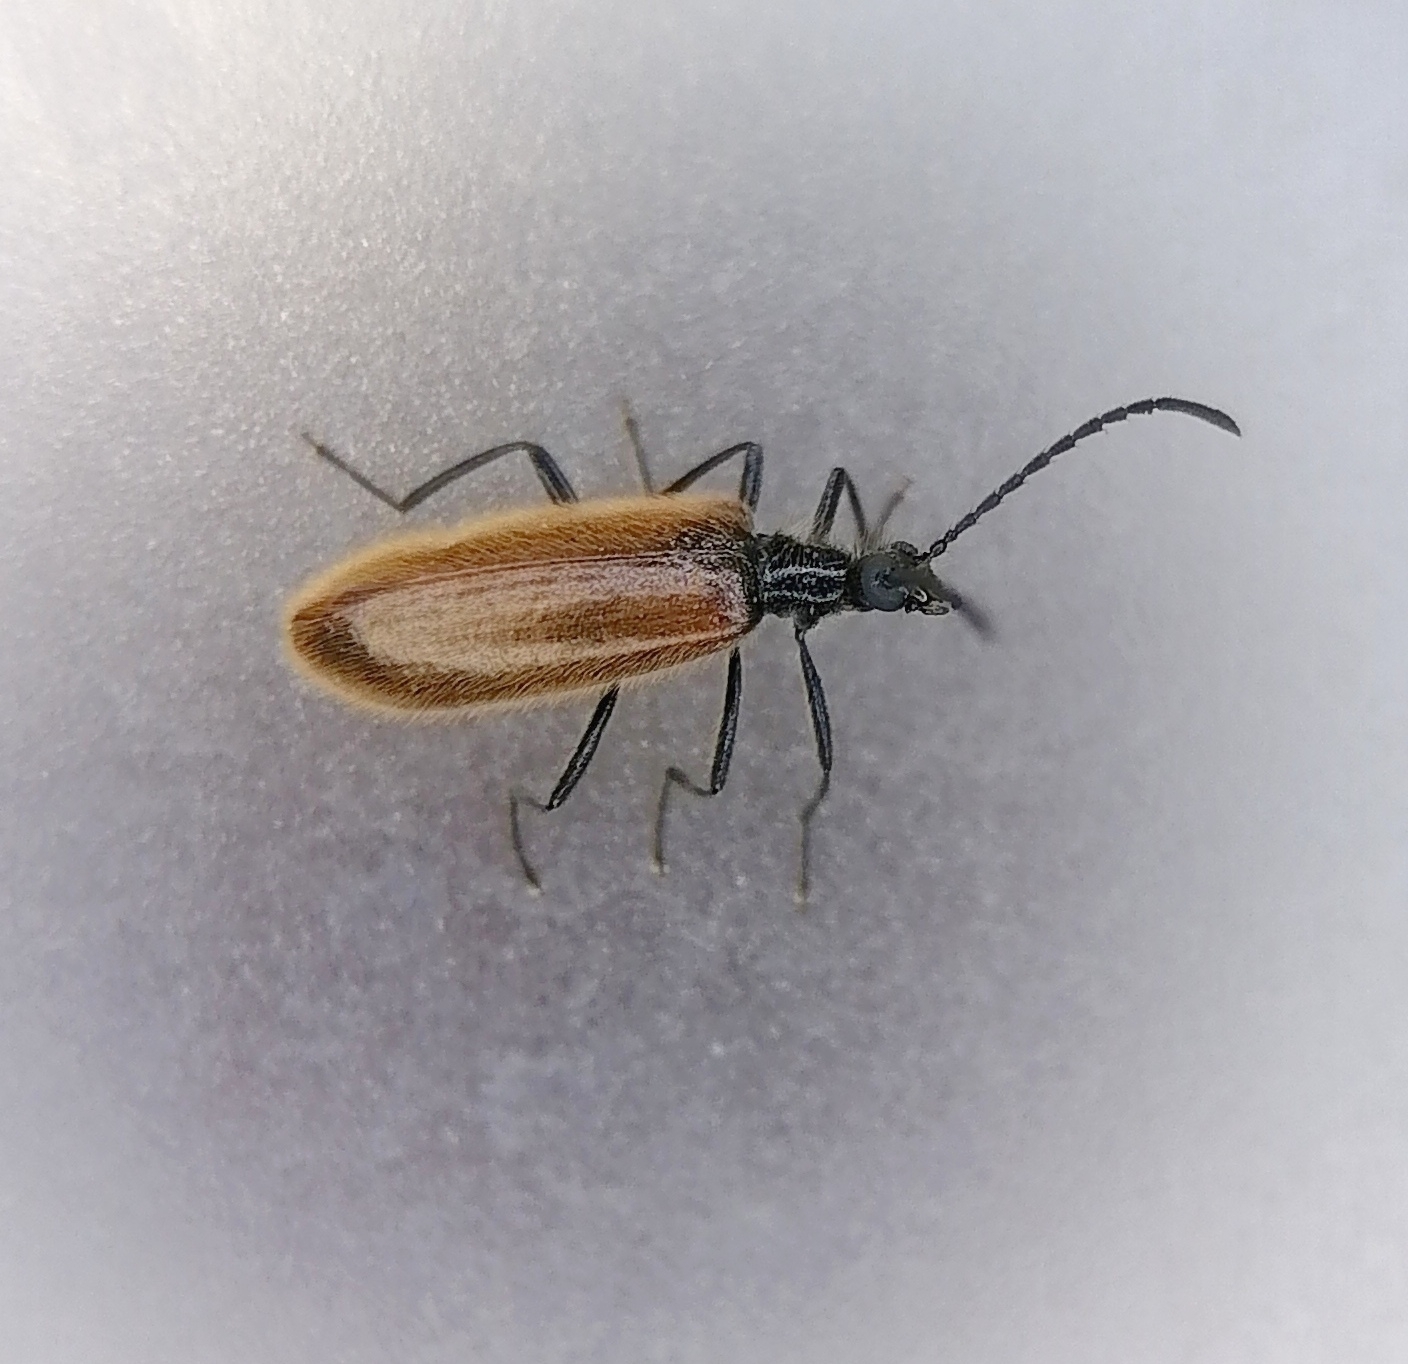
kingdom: Animalia
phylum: Arthropoda
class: Insecta
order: Coleoptera
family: Tenebrionidae
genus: Lagria
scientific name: Lagria hirta
